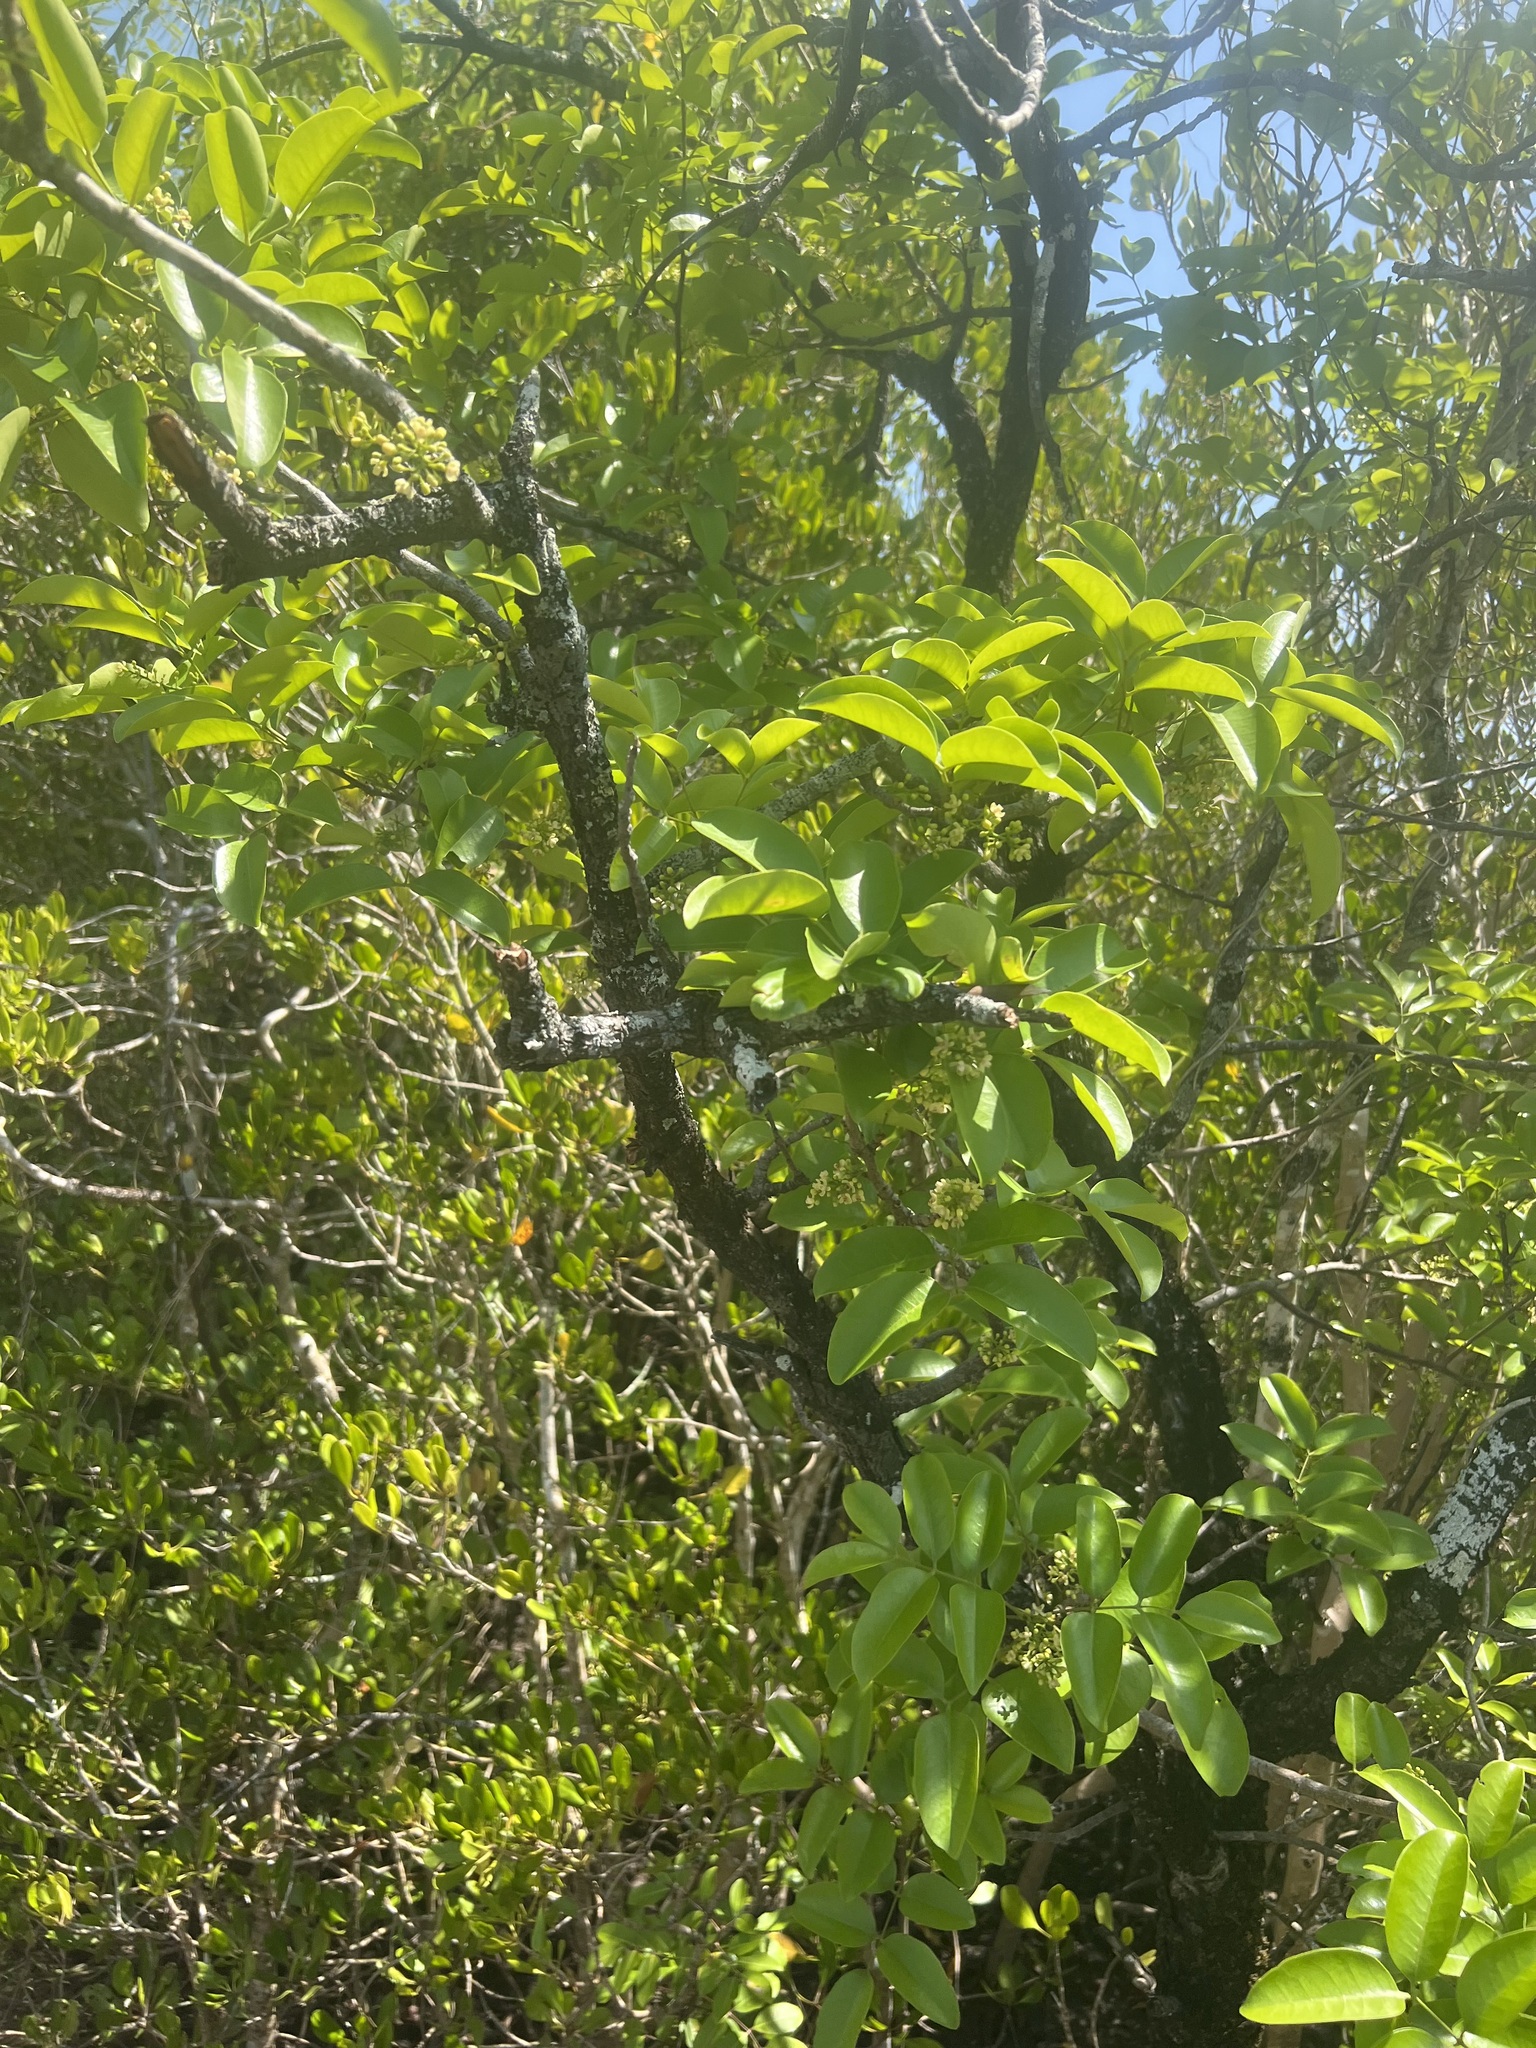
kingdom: Plantae
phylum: Tracheophyta
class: Magnoliopsida
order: Sapindales
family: Meliaceae
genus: Xylocarpus
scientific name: Xylocarpus moluccensis
